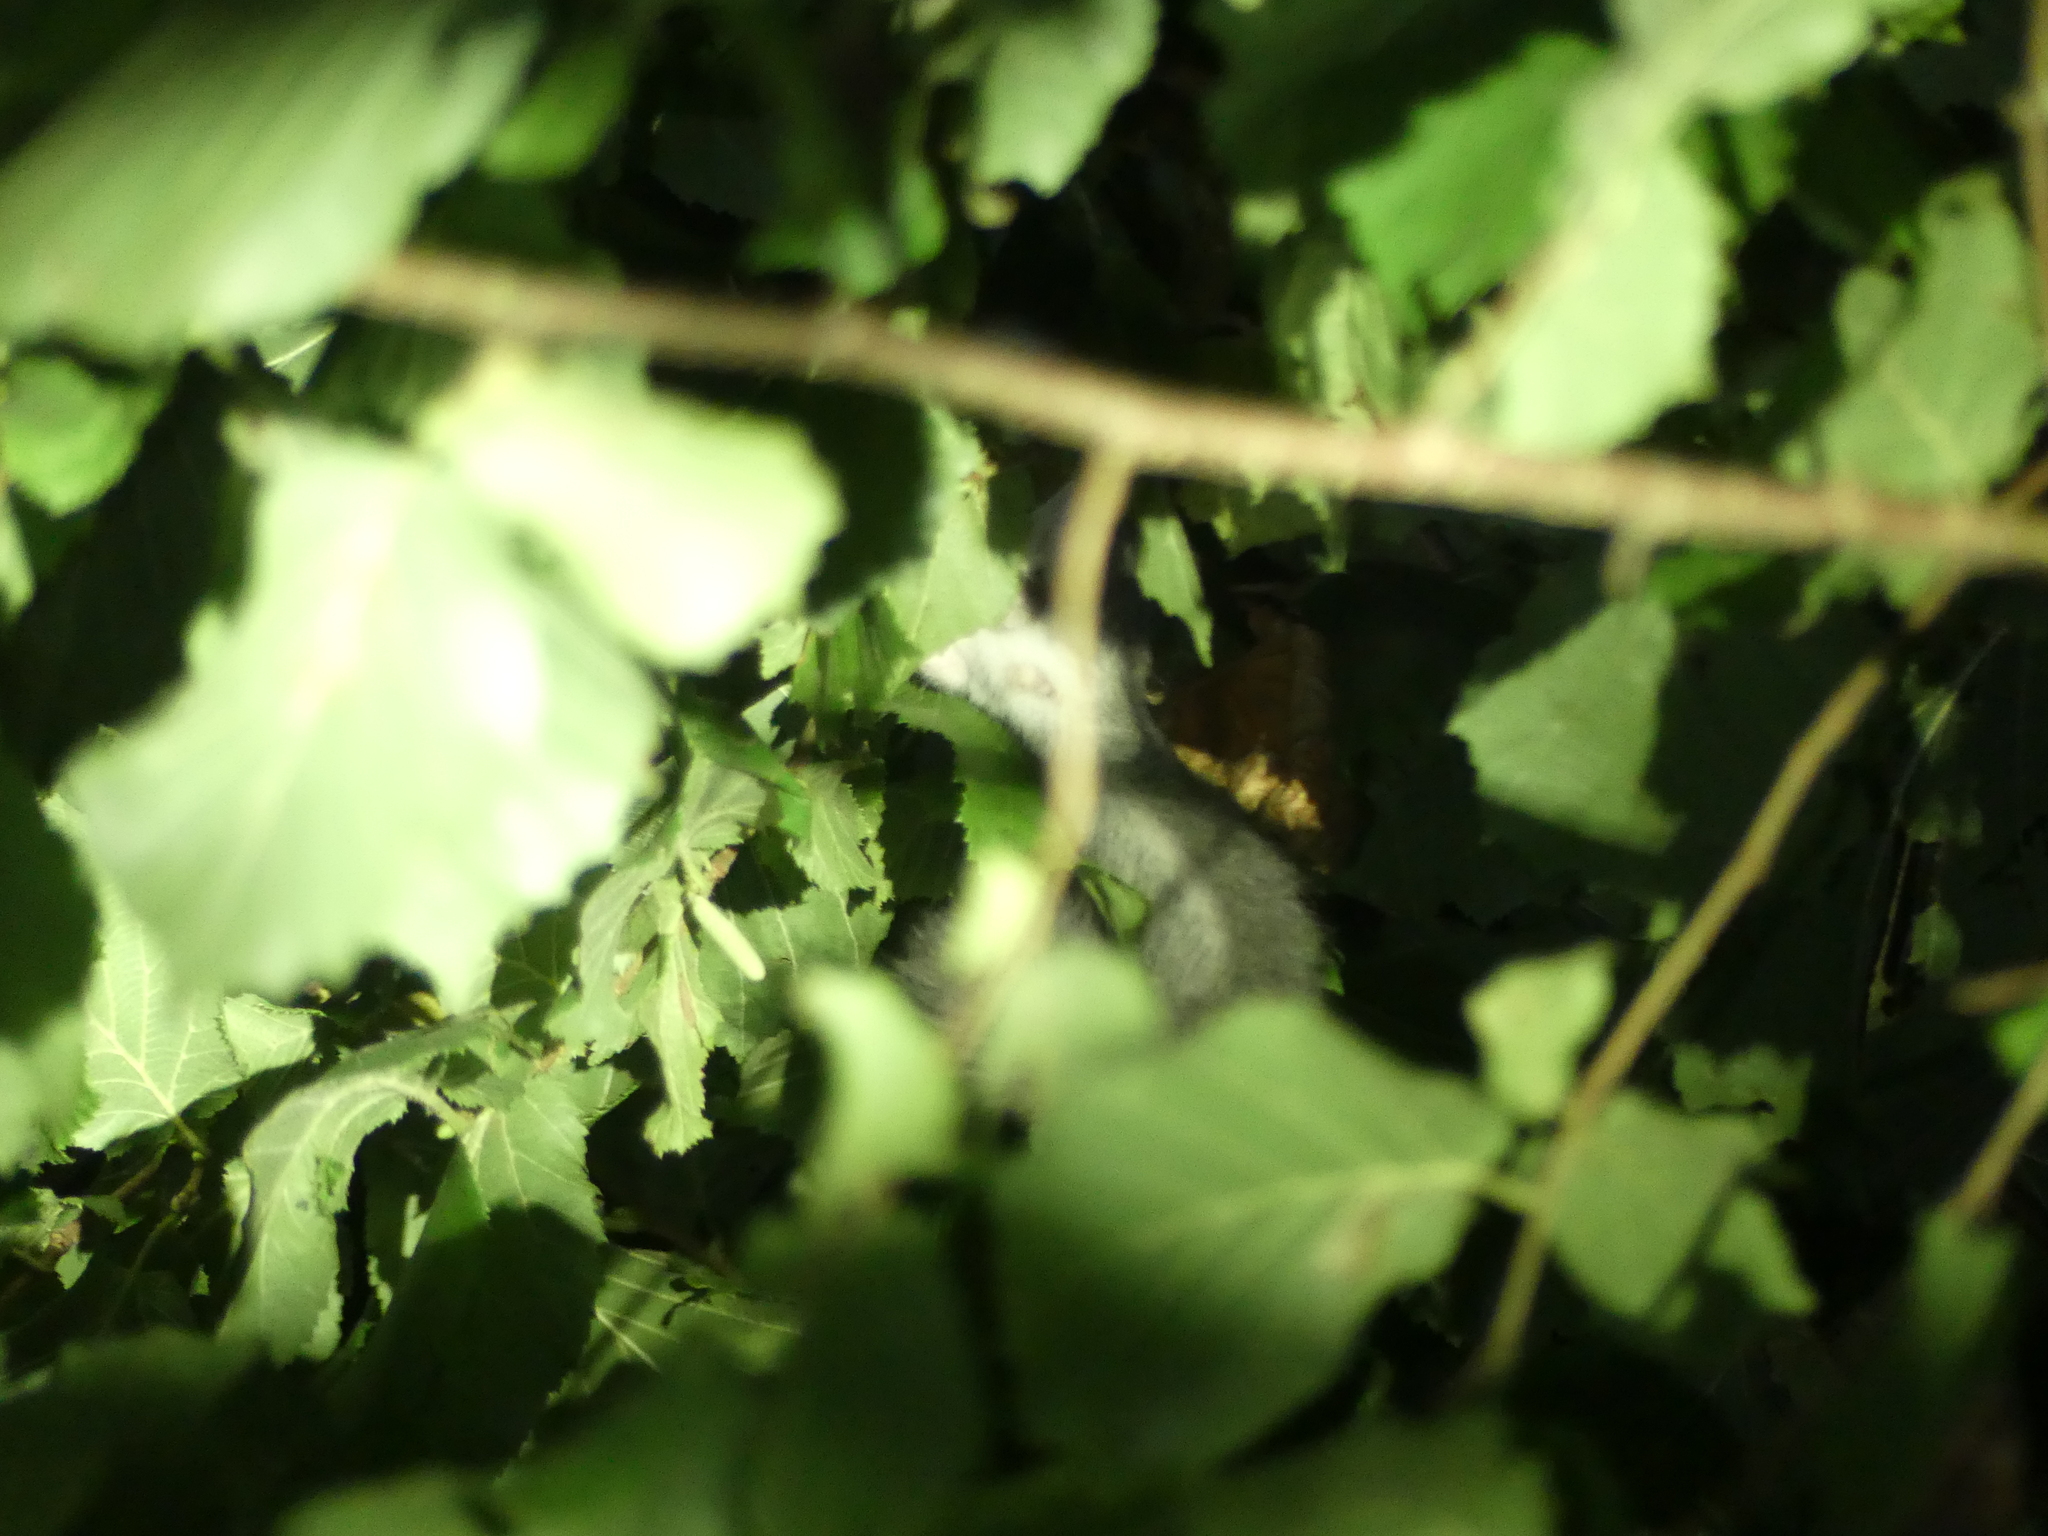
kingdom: Animalia
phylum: Chordata
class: Mammalia
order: Rodentia
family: Gliridae
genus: Glis
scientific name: Glis glis
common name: Fat dormouse
